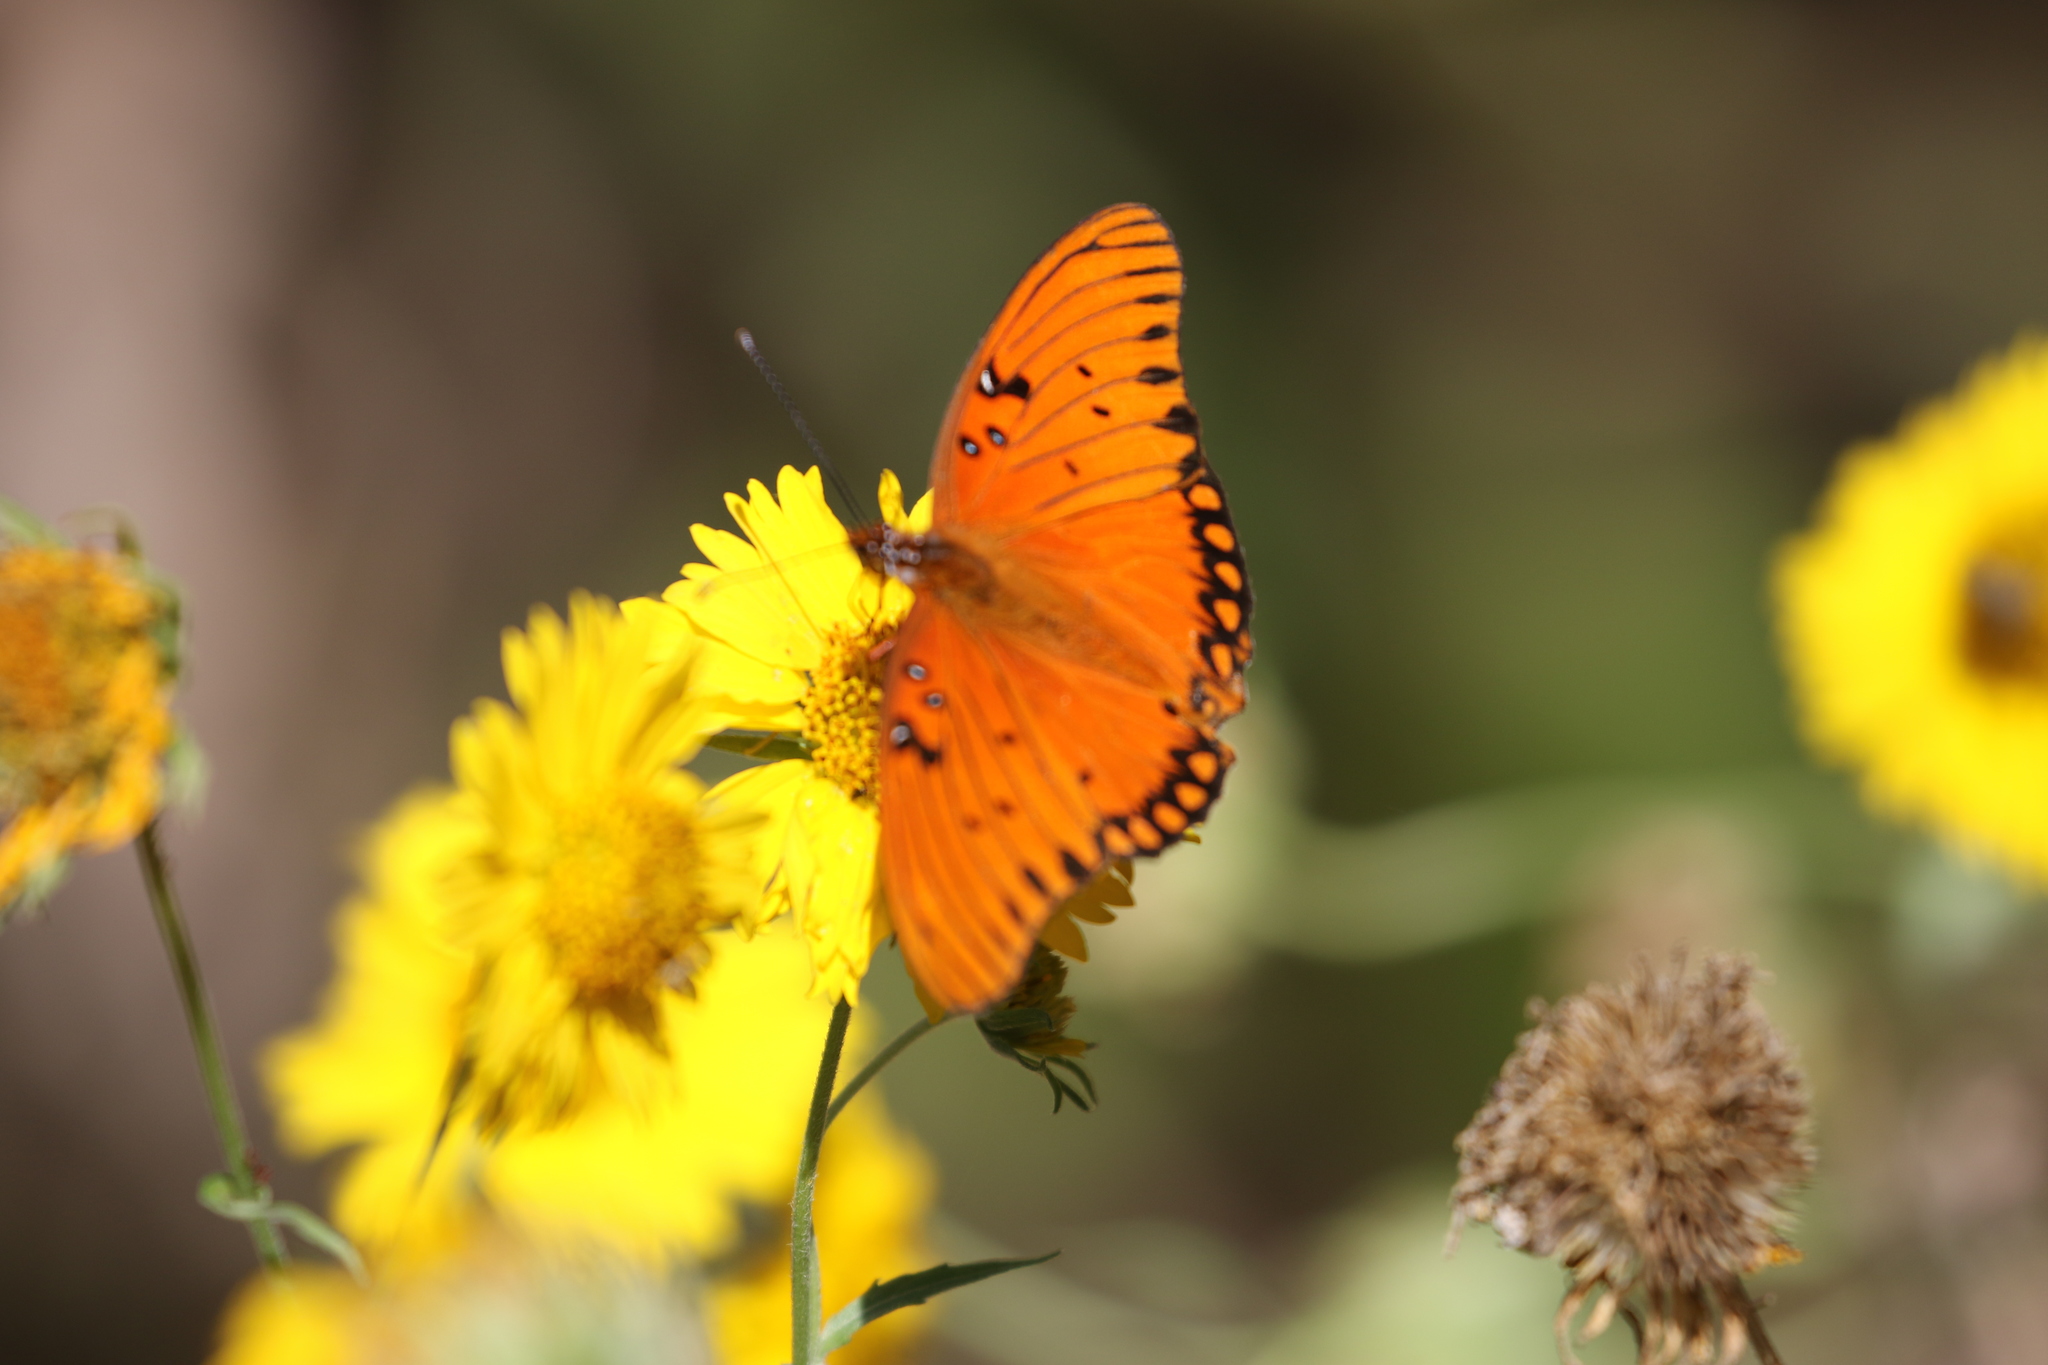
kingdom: Animalia
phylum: Arthropoda
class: Insecta
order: Lepidoptera
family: Nymphalidae
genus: Dione
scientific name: Dione vanillae
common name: Gulf fritillary
